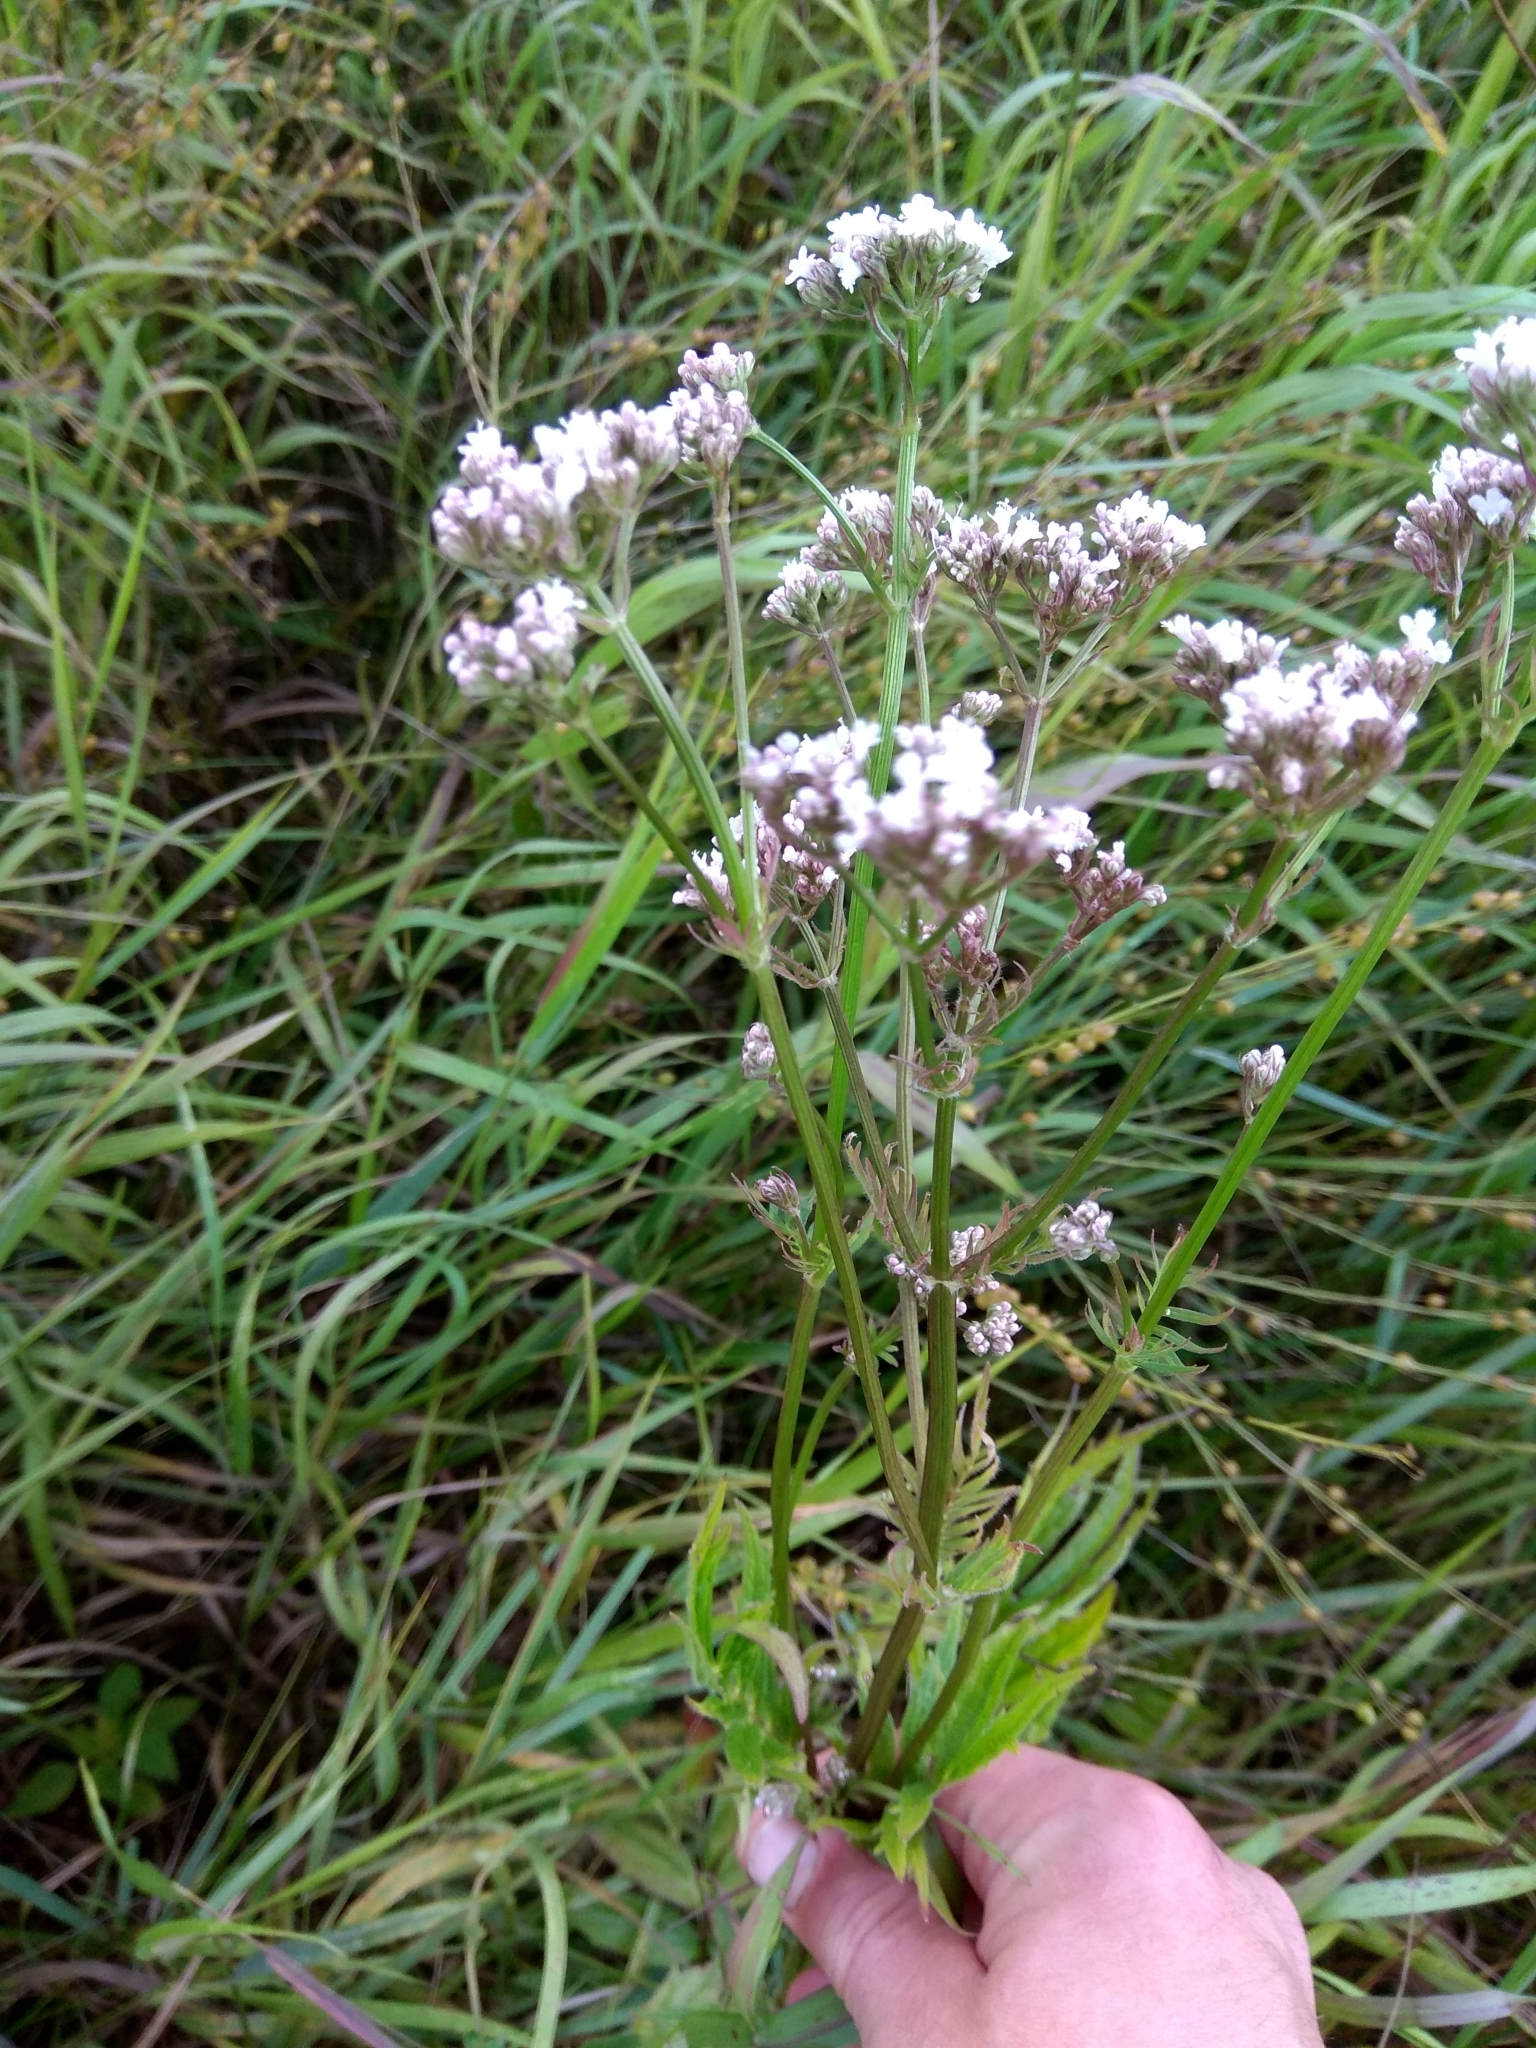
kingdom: Plantae
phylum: Tracheophyta
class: Magnoliopsida
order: Dipsacales
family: Caprifoliaceae
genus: Valeriana
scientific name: Valeriana officinalis
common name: Common valerian
